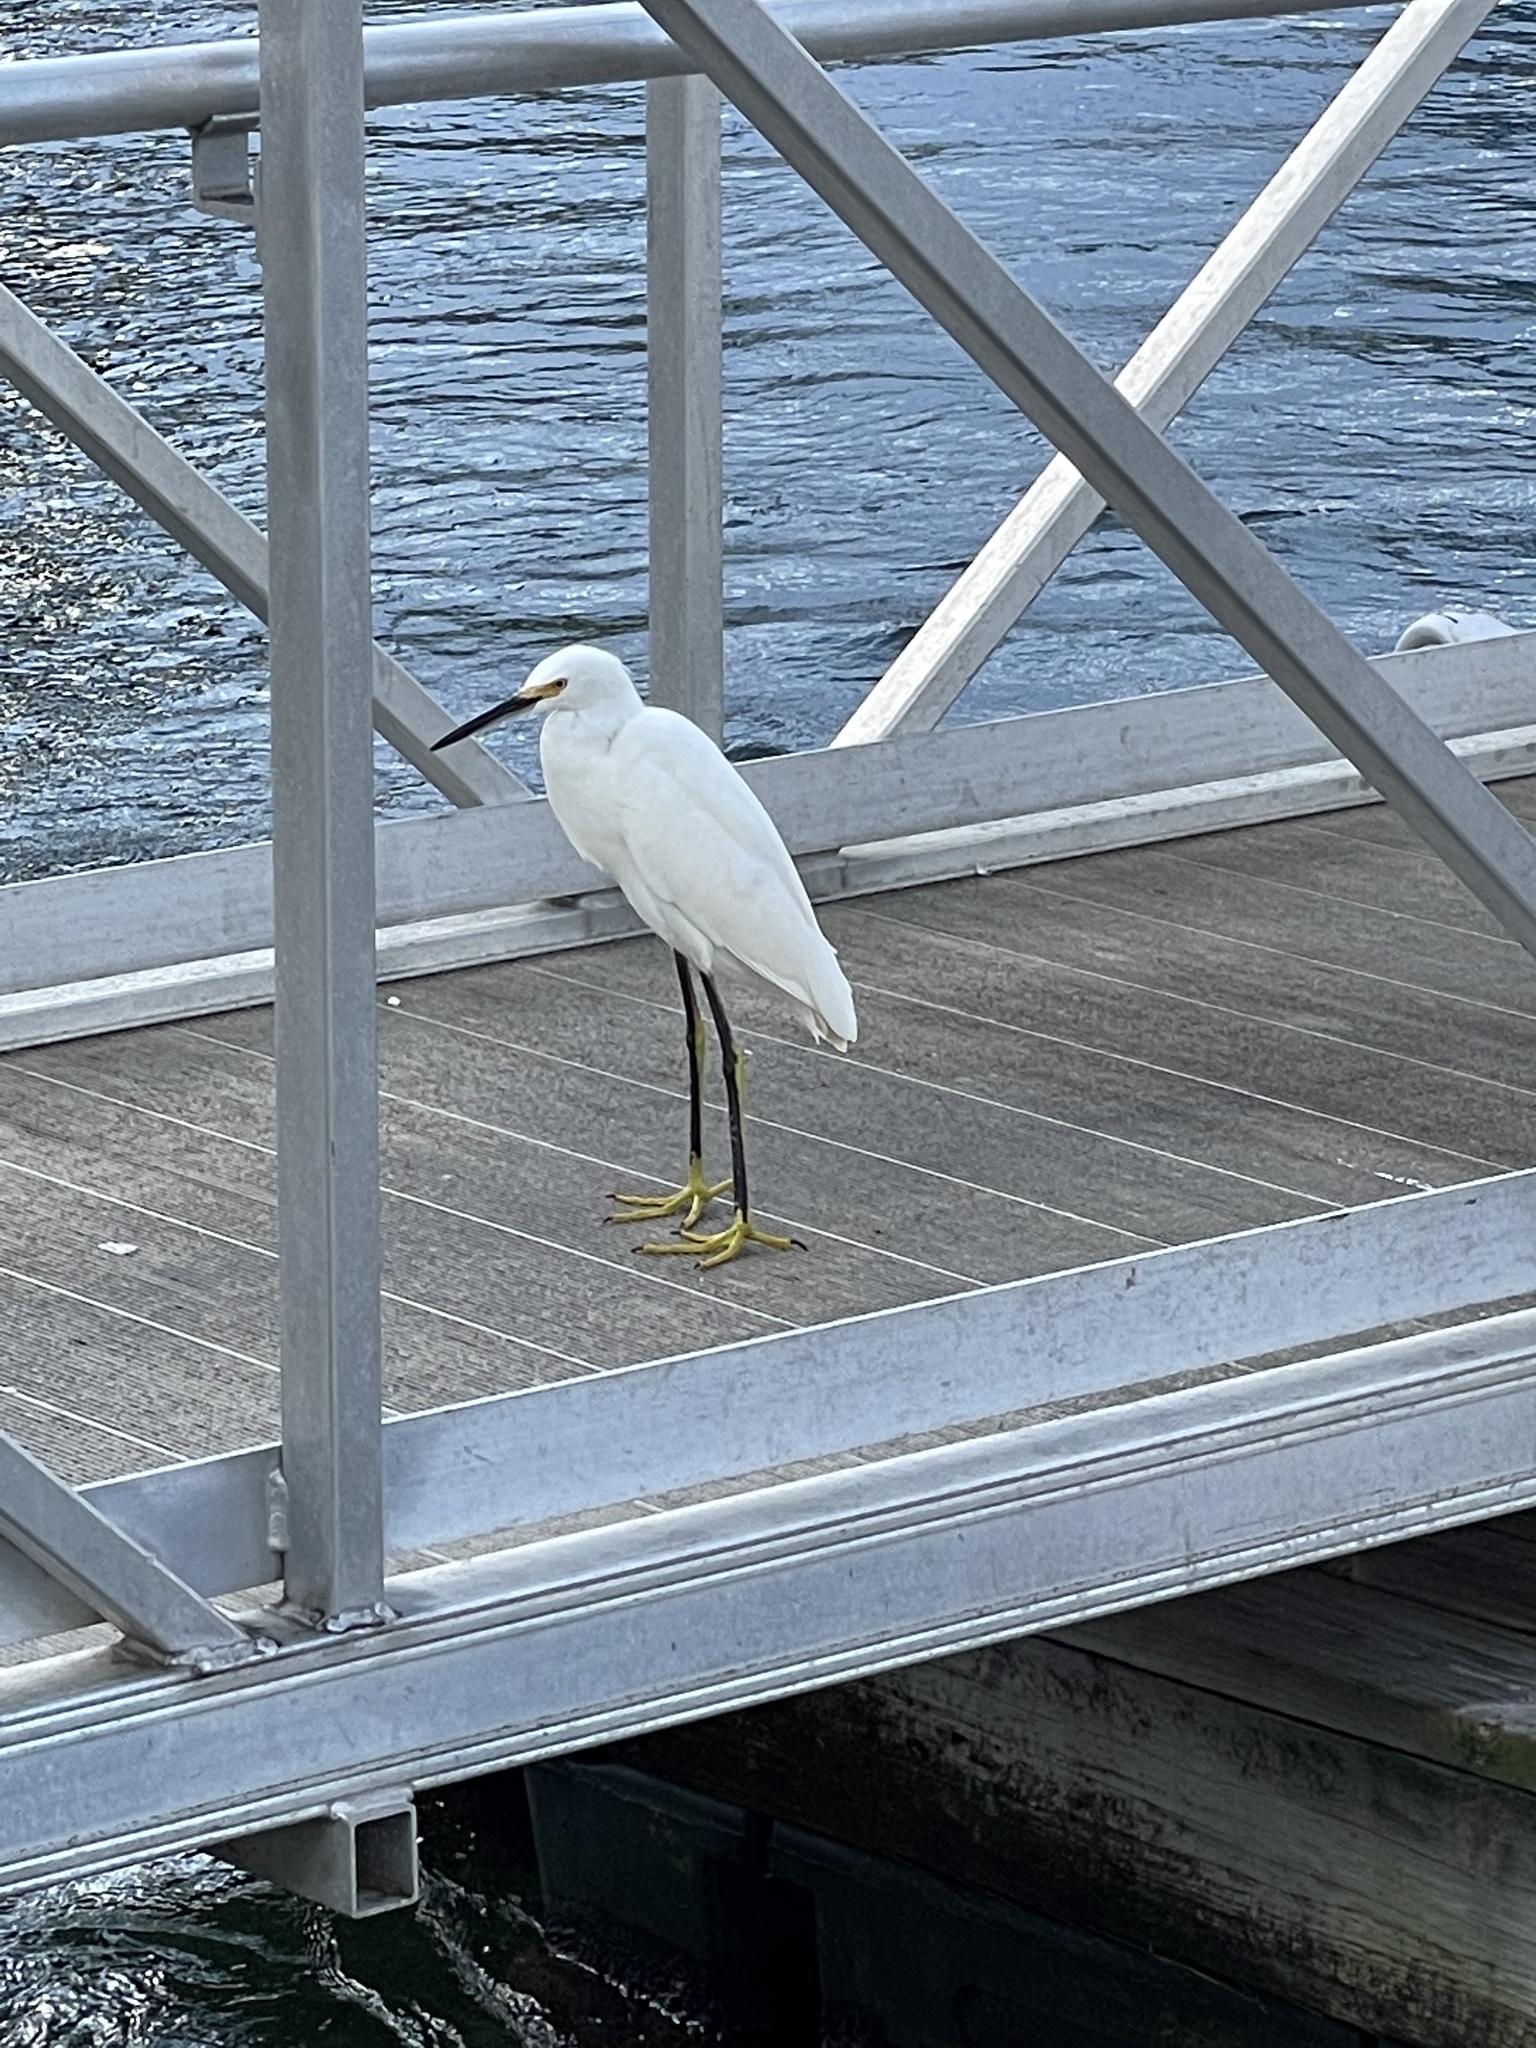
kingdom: Animalia
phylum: Chordata
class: Aves
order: Pelecaniformes
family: Ardeidae
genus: Egretta
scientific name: Egretta thula
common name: Snowy egret
